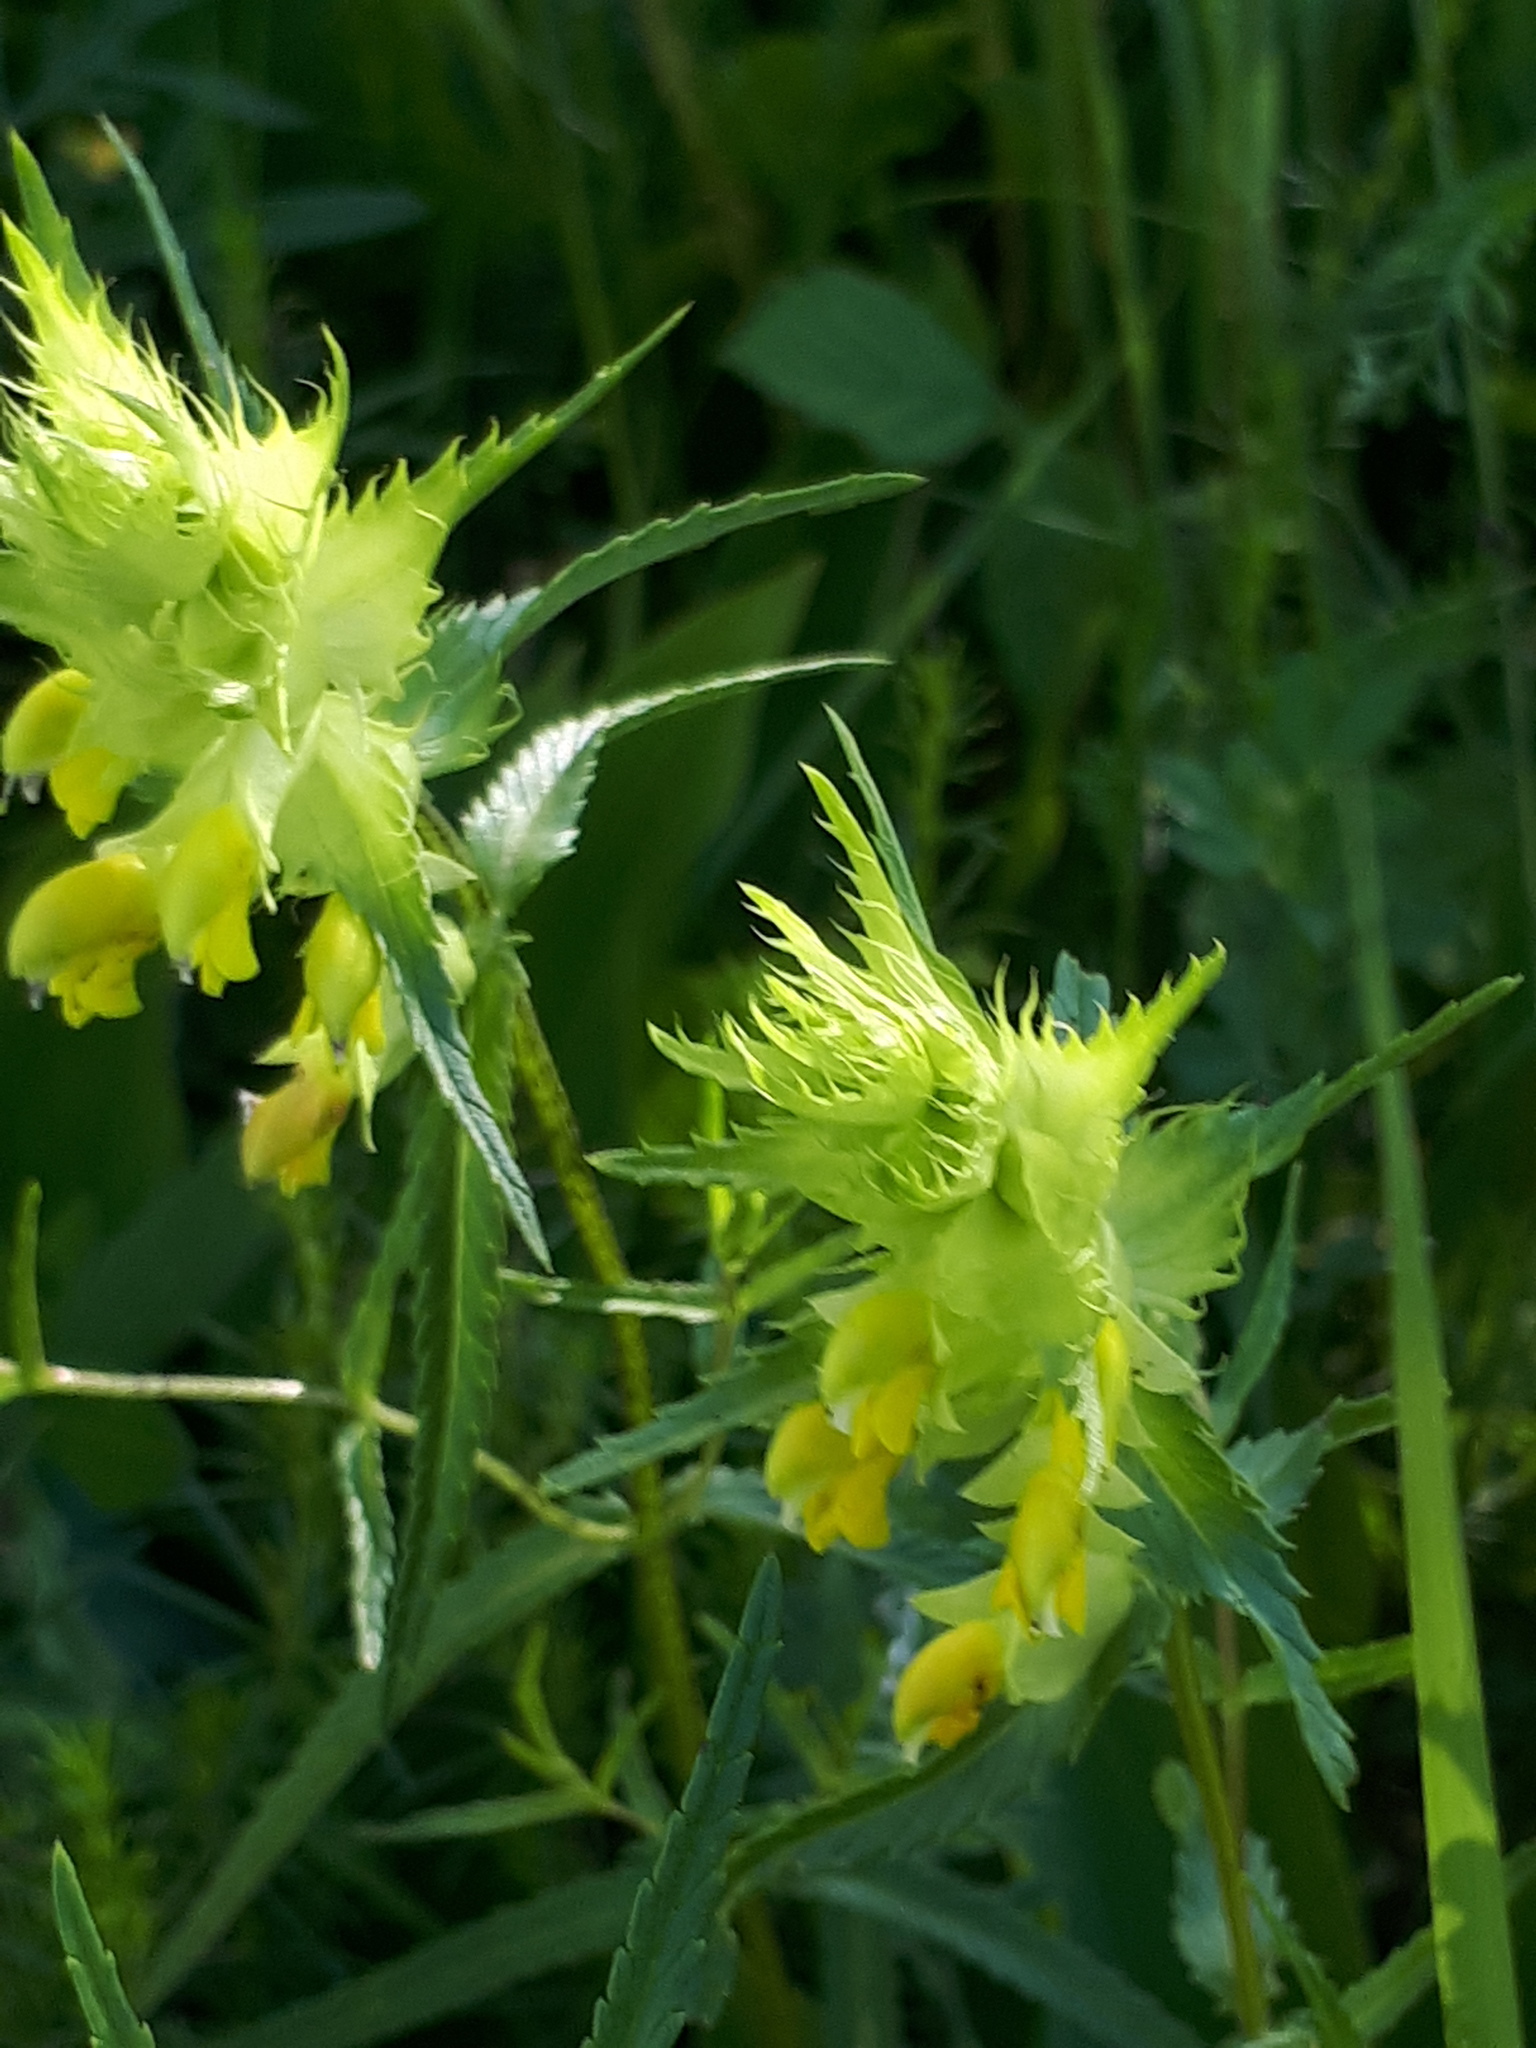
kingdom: Plantae
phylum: Tracheophyta
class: Magnoliopsida
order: Lamiales
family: Orobanchaceae
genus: Rhinanthus
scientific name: Rhinanthus glacialis
